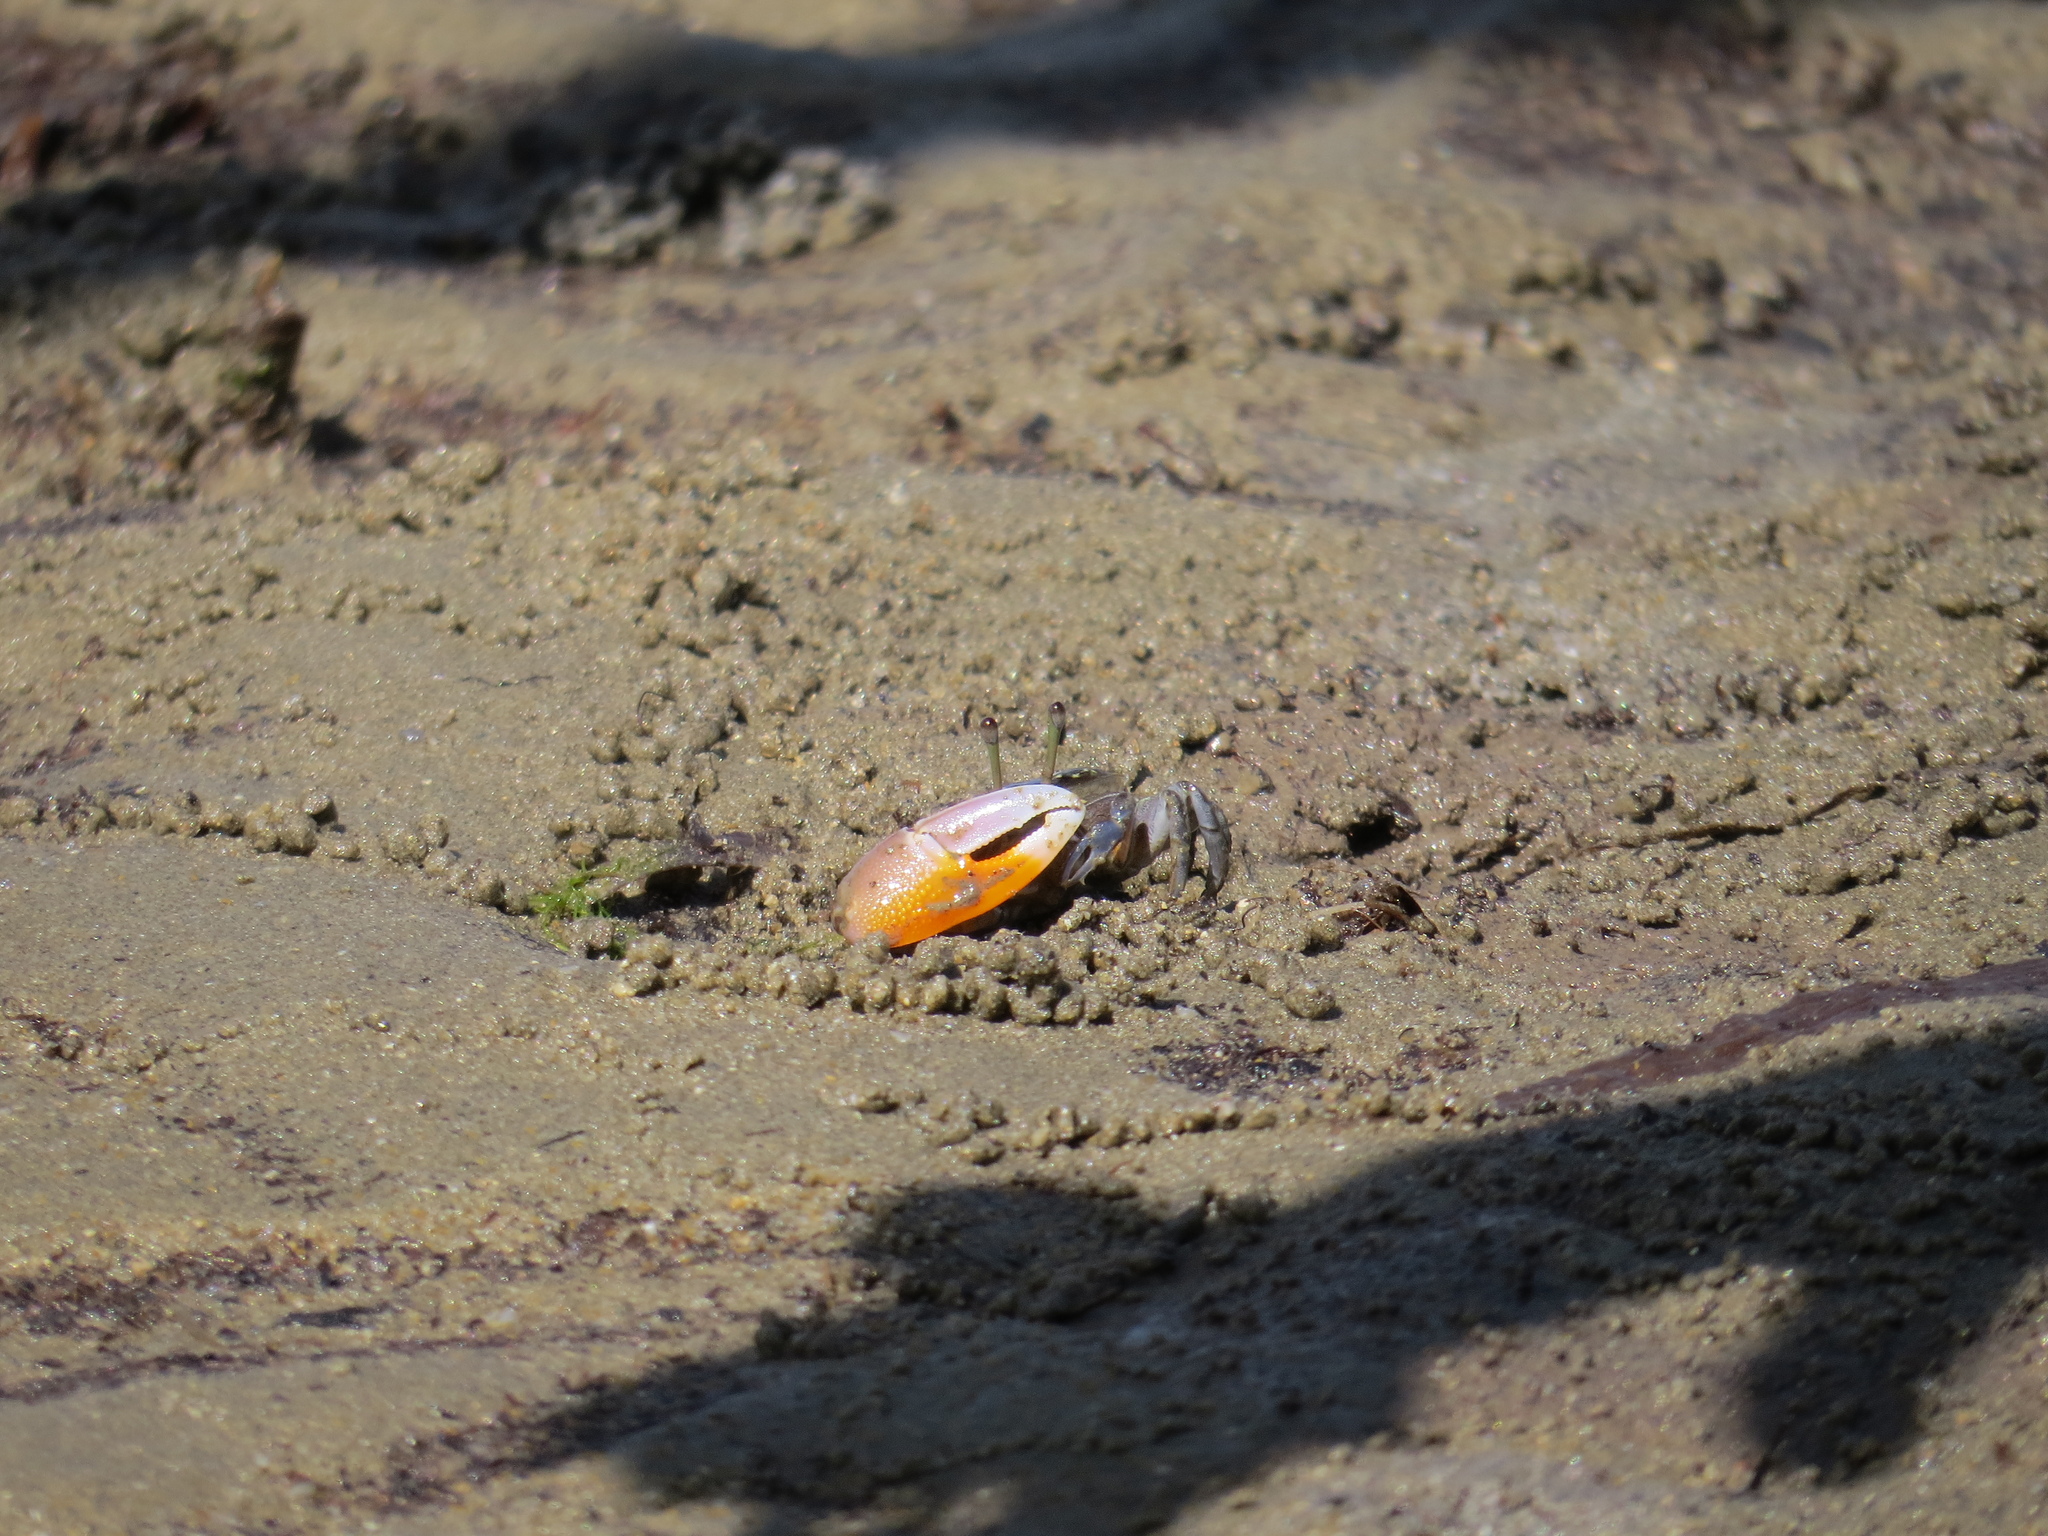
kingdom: Animalia
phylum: Arthropoda
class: Malacostraca
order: Decapoda
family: Ocypodidae
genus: Gelasimus
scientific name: Gelasimus vomeris
